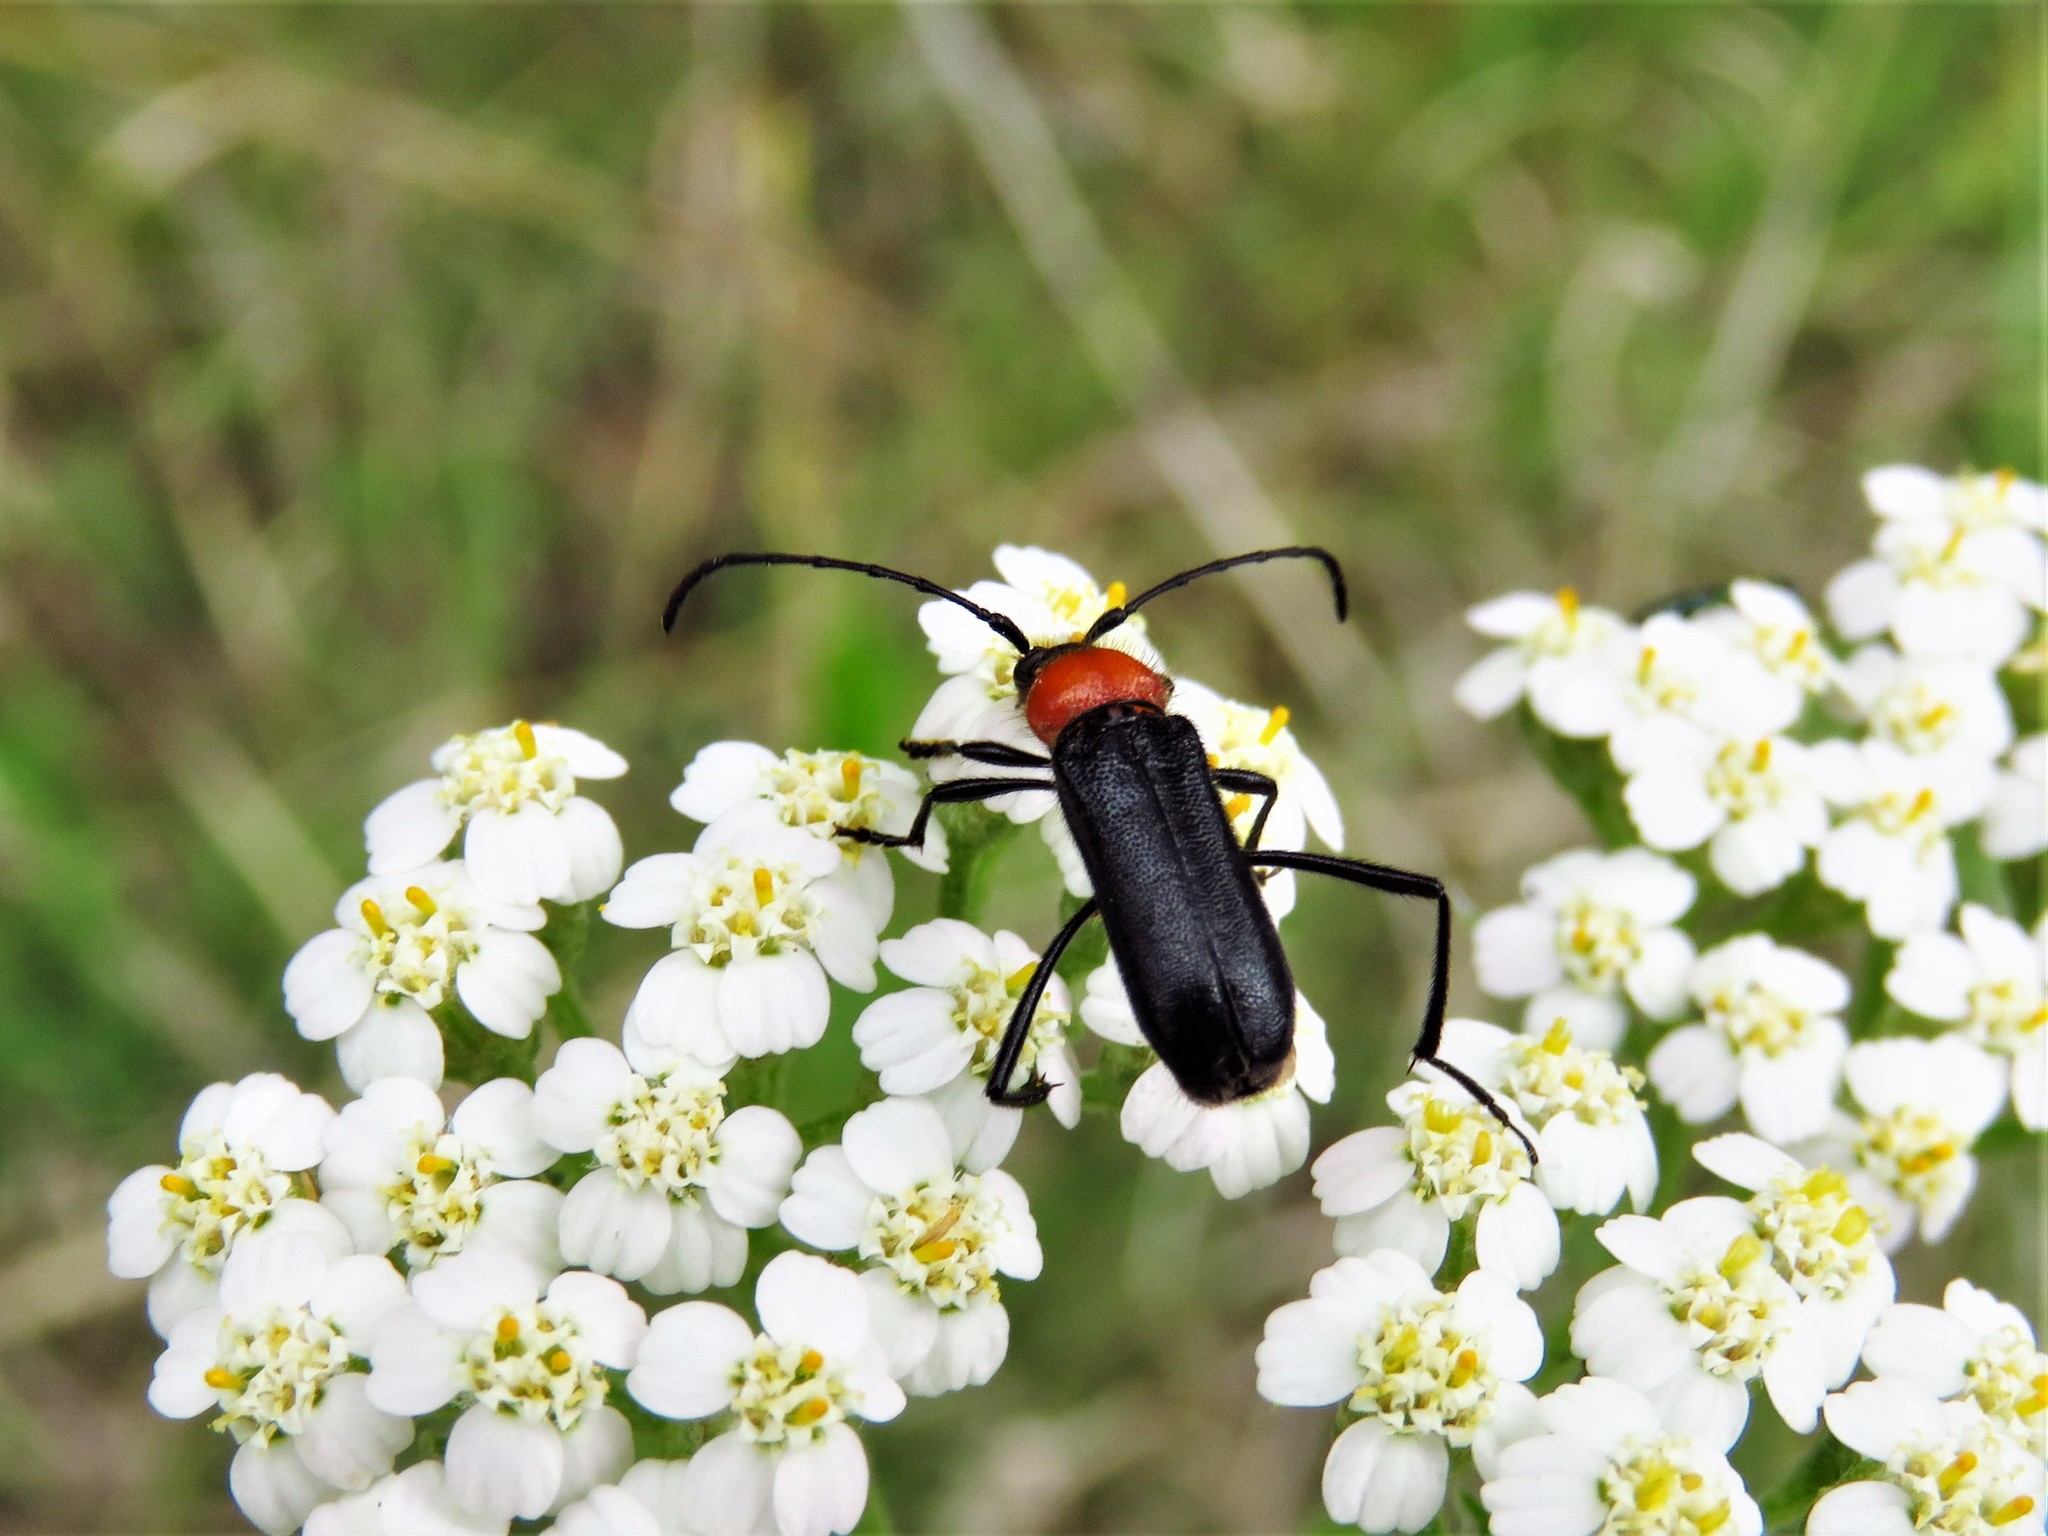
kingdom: Animalia
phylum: Arthropoda
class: Insecta
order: Coleoptera
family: Cerambycidae
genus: Batyle
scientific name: Batyle ignicollis
